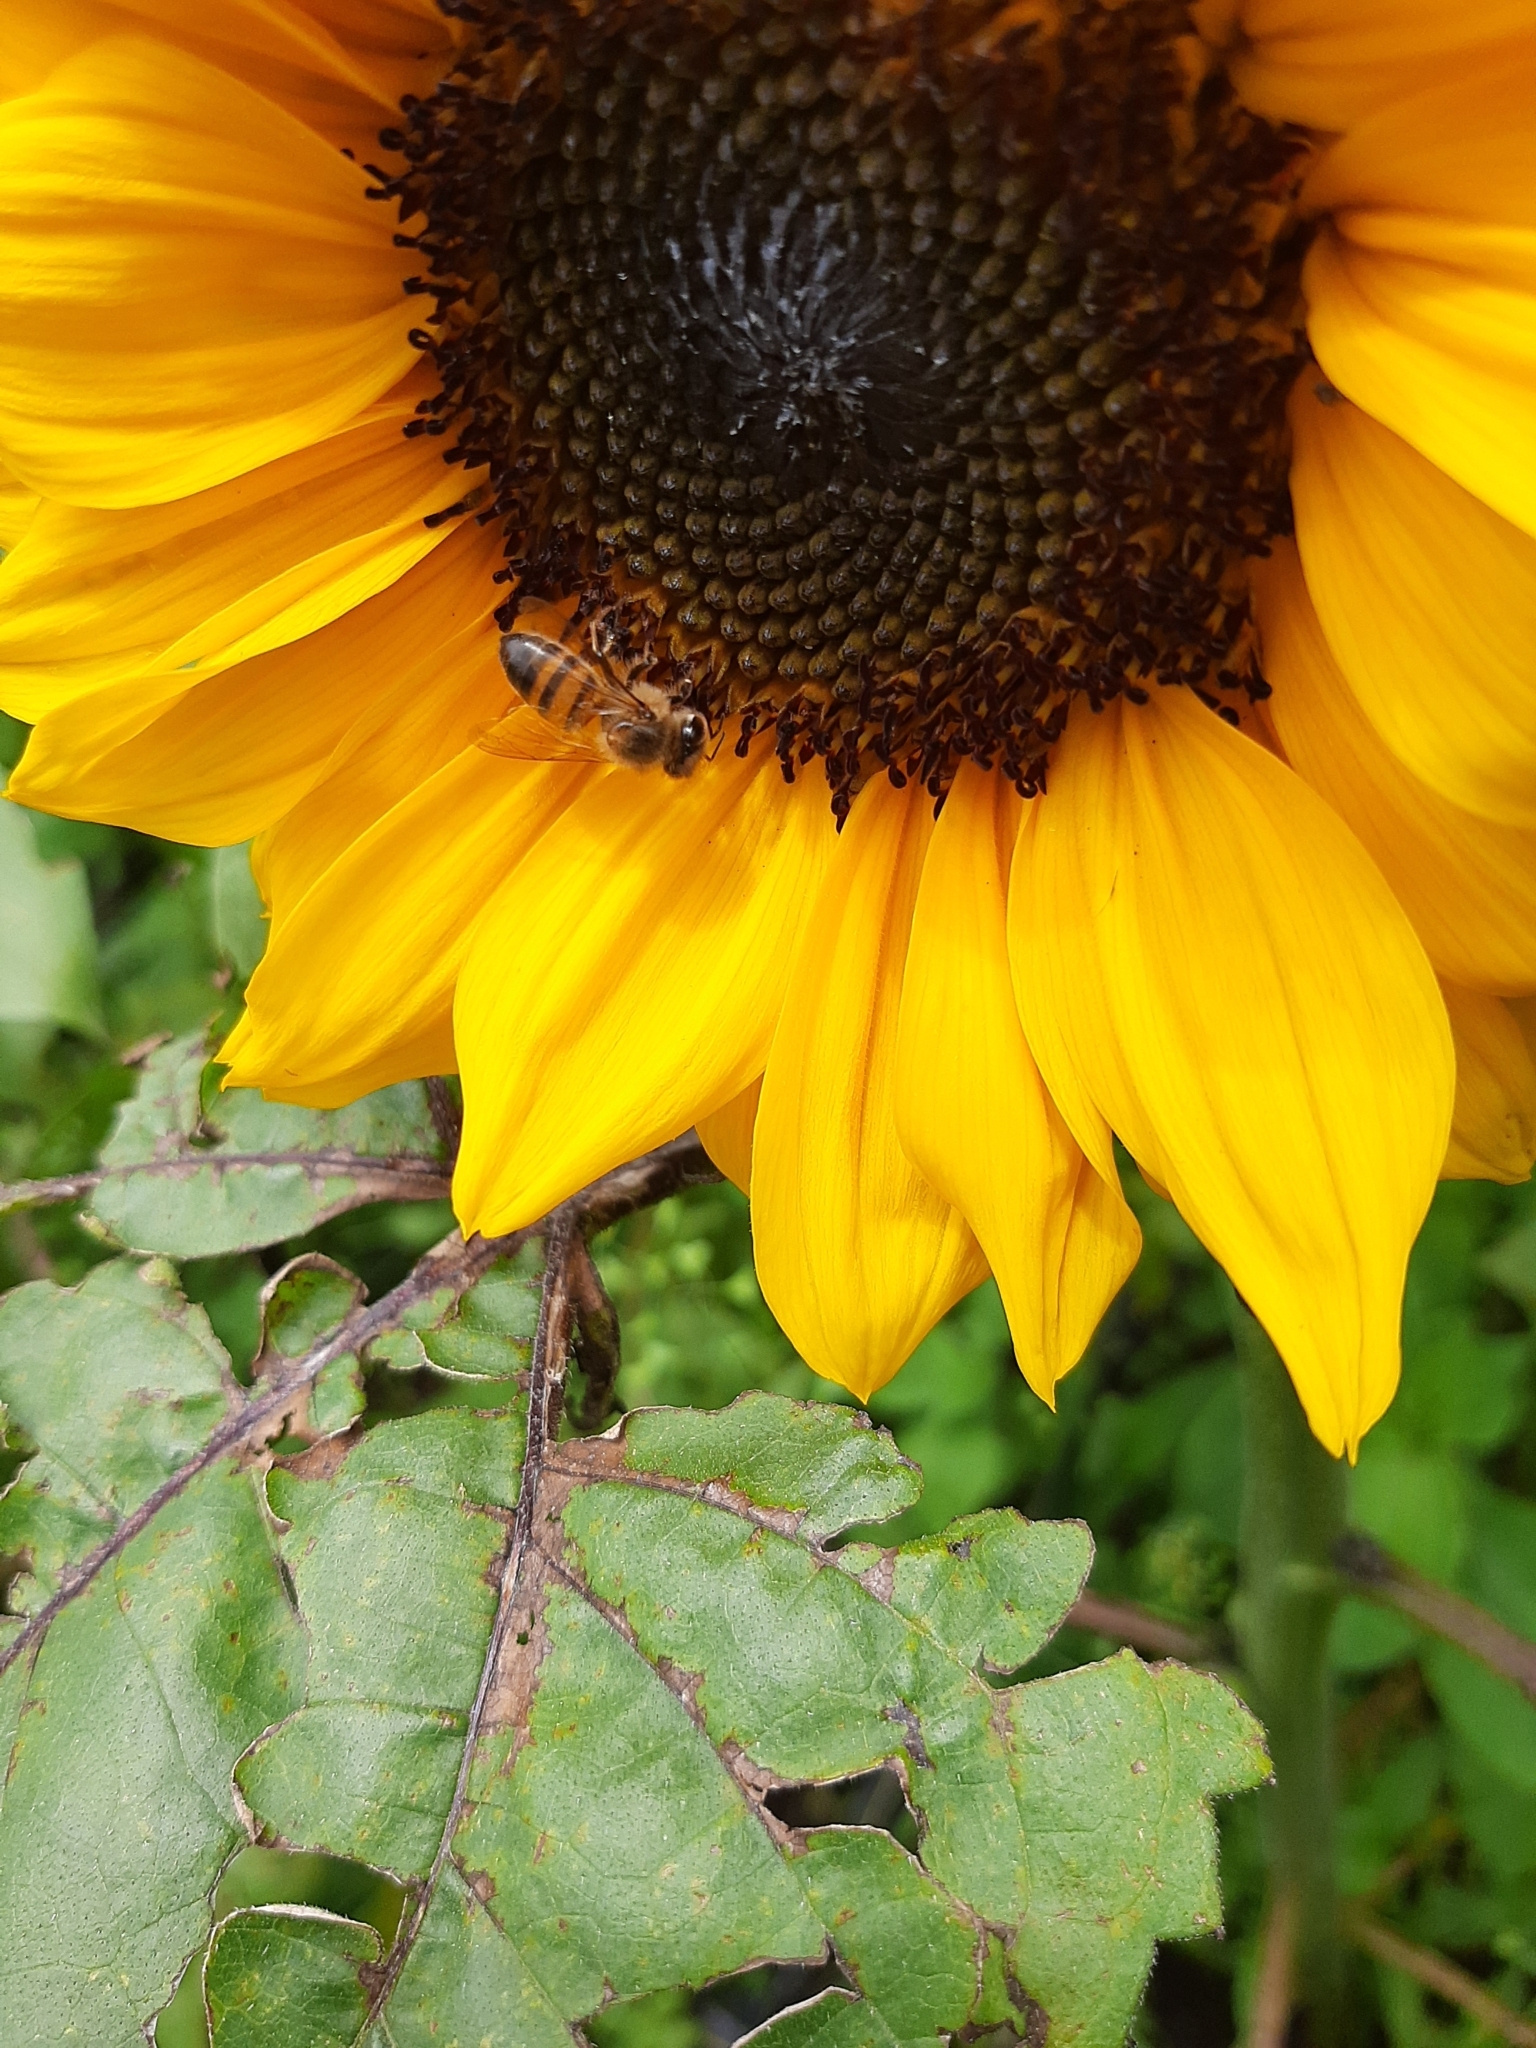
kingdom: Animalia
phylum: Arthropoda
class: Insecta
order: Hymenoptera
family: Apidae
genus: Apis
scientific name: Apis mellifera
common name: Honey bee
